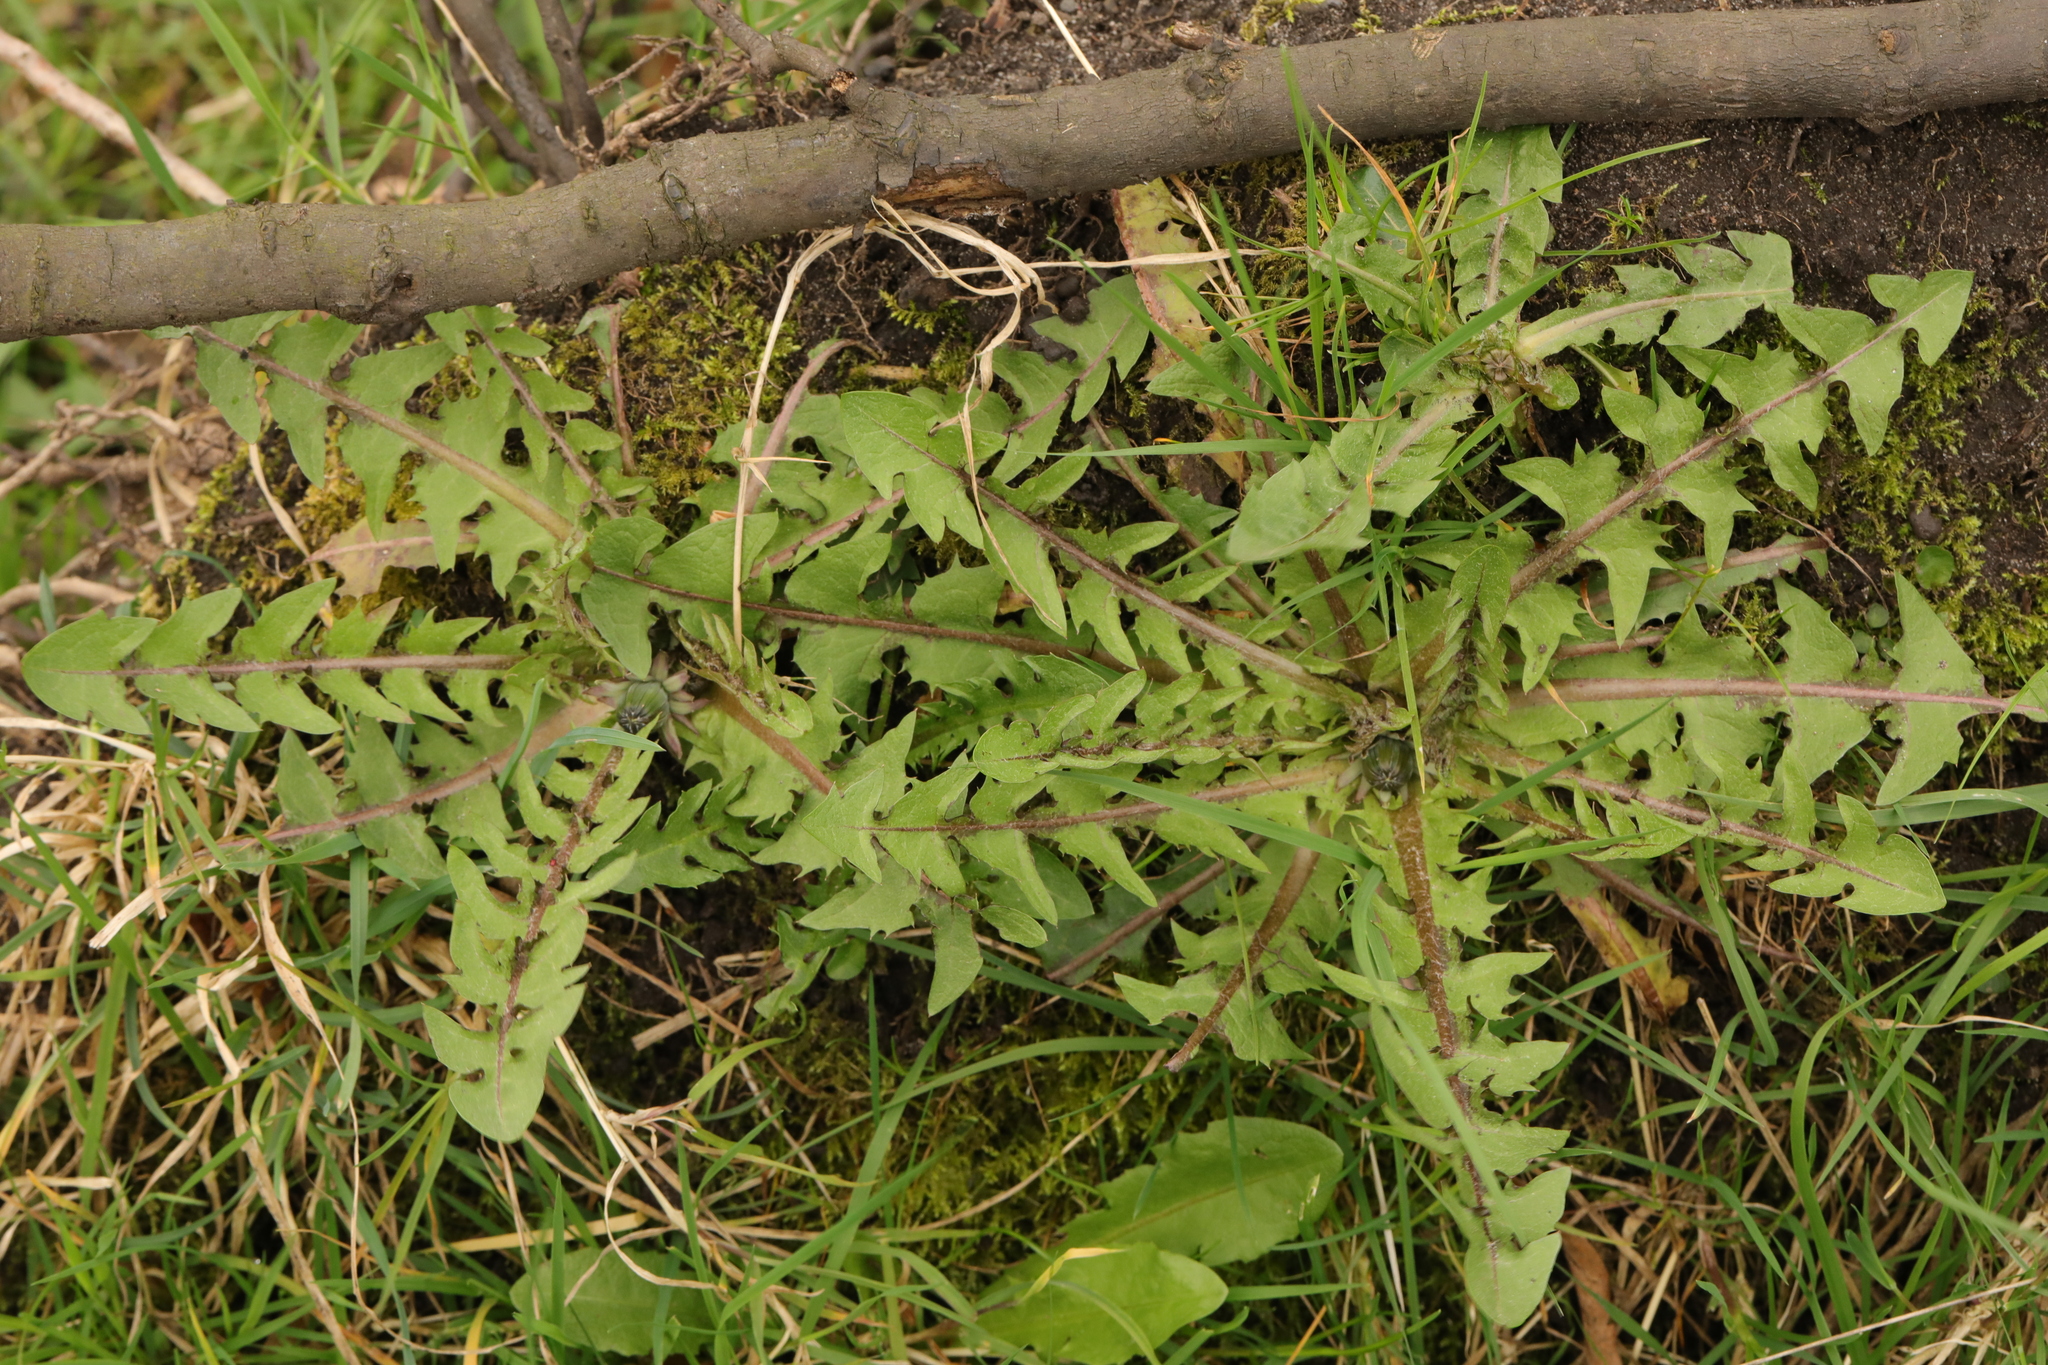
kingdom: Plantae
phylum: Tracheophyta
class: Magnoliopsida
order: Asterales
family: Asteraceae
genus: Taraxacum
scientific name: Taraxacum officinale
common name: Common dandelion
